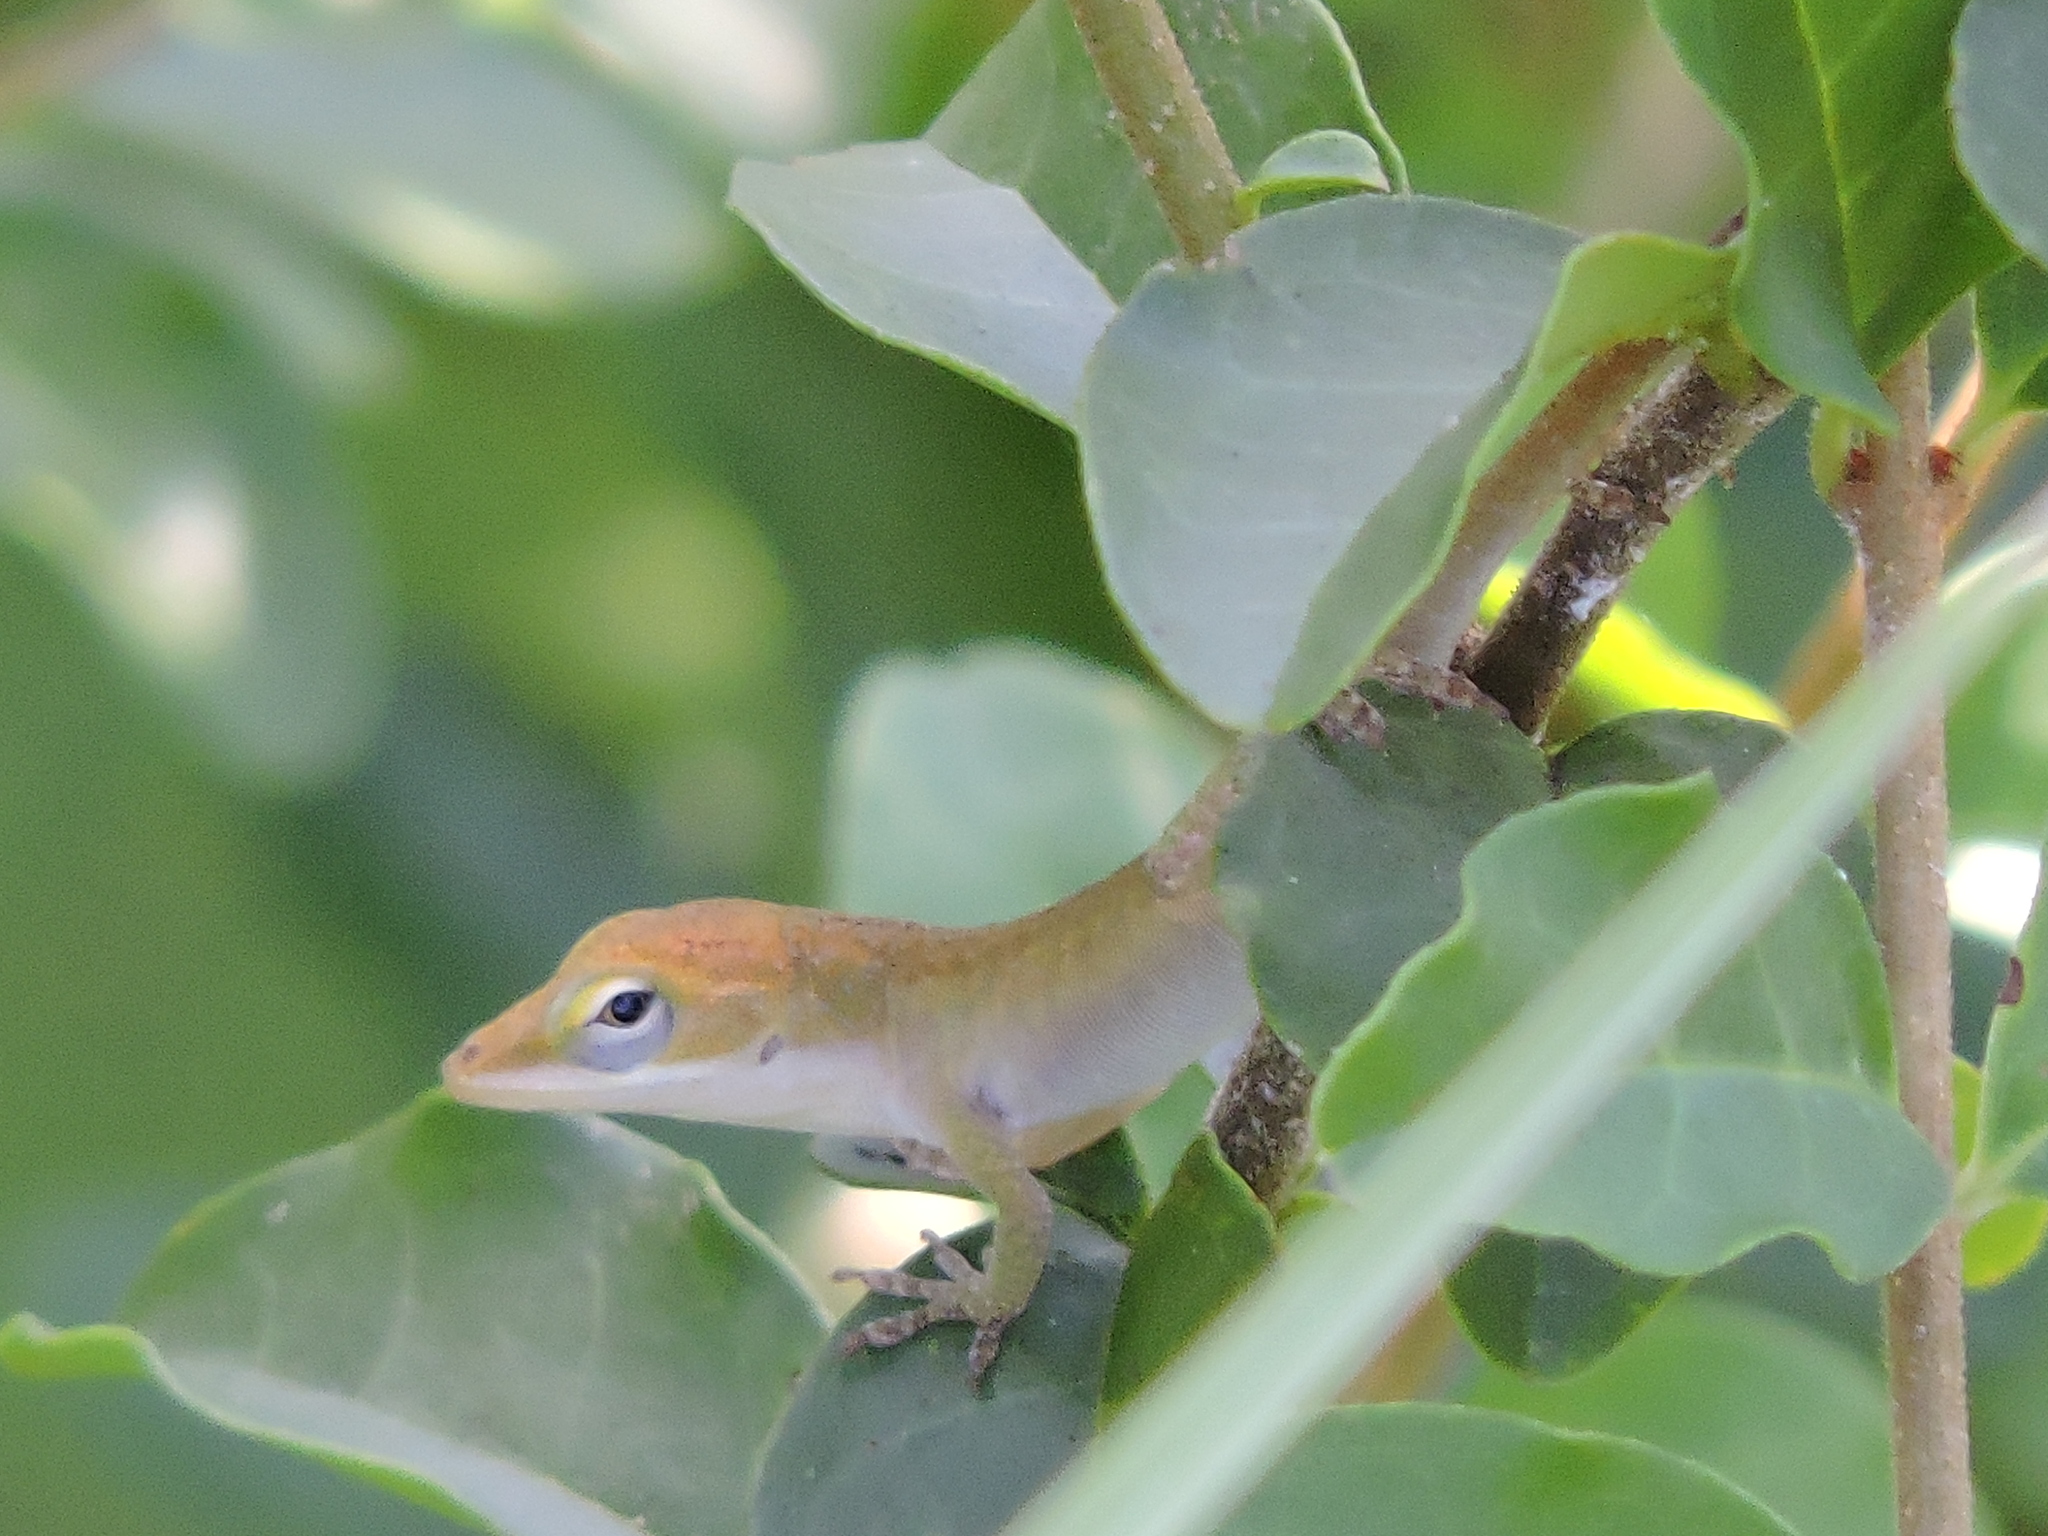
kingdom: Animalia
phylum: Chordata
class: Squamata
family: Dactyloidae
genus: Anolis
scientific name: Anolis carolinensis
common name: Green anole
